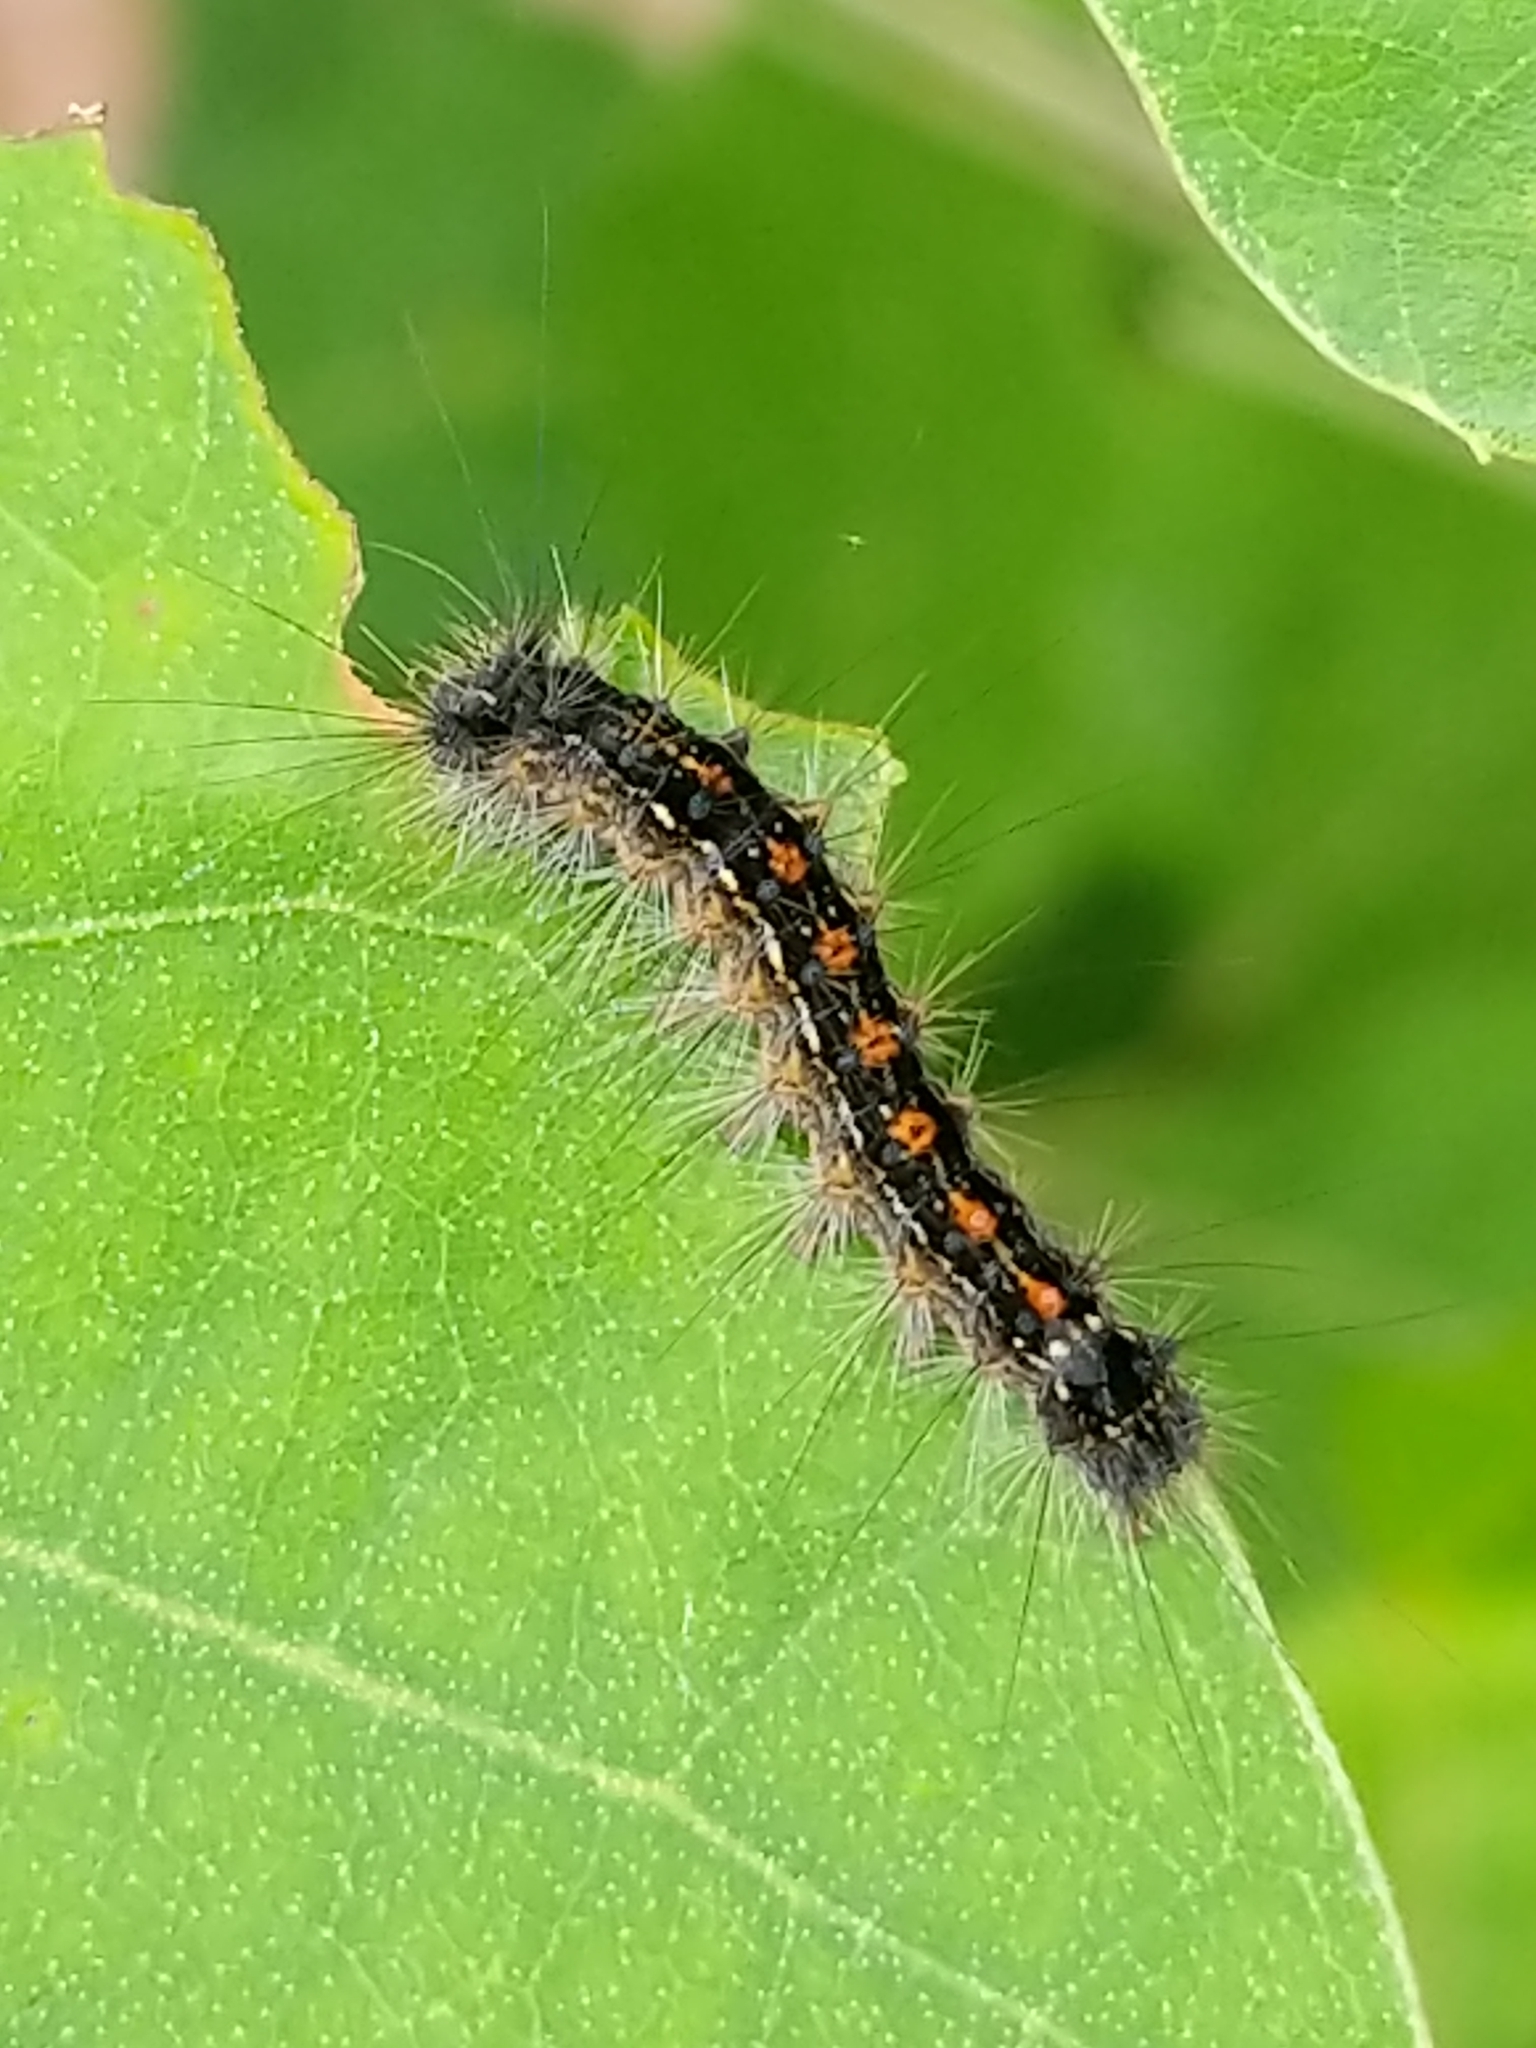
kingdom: Animalia
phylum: Arthropoda
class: Insecta
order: Lepidoptera
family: Erebidae
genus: Lymantria
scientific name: Lymantria dispar
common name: Gypsy moth
